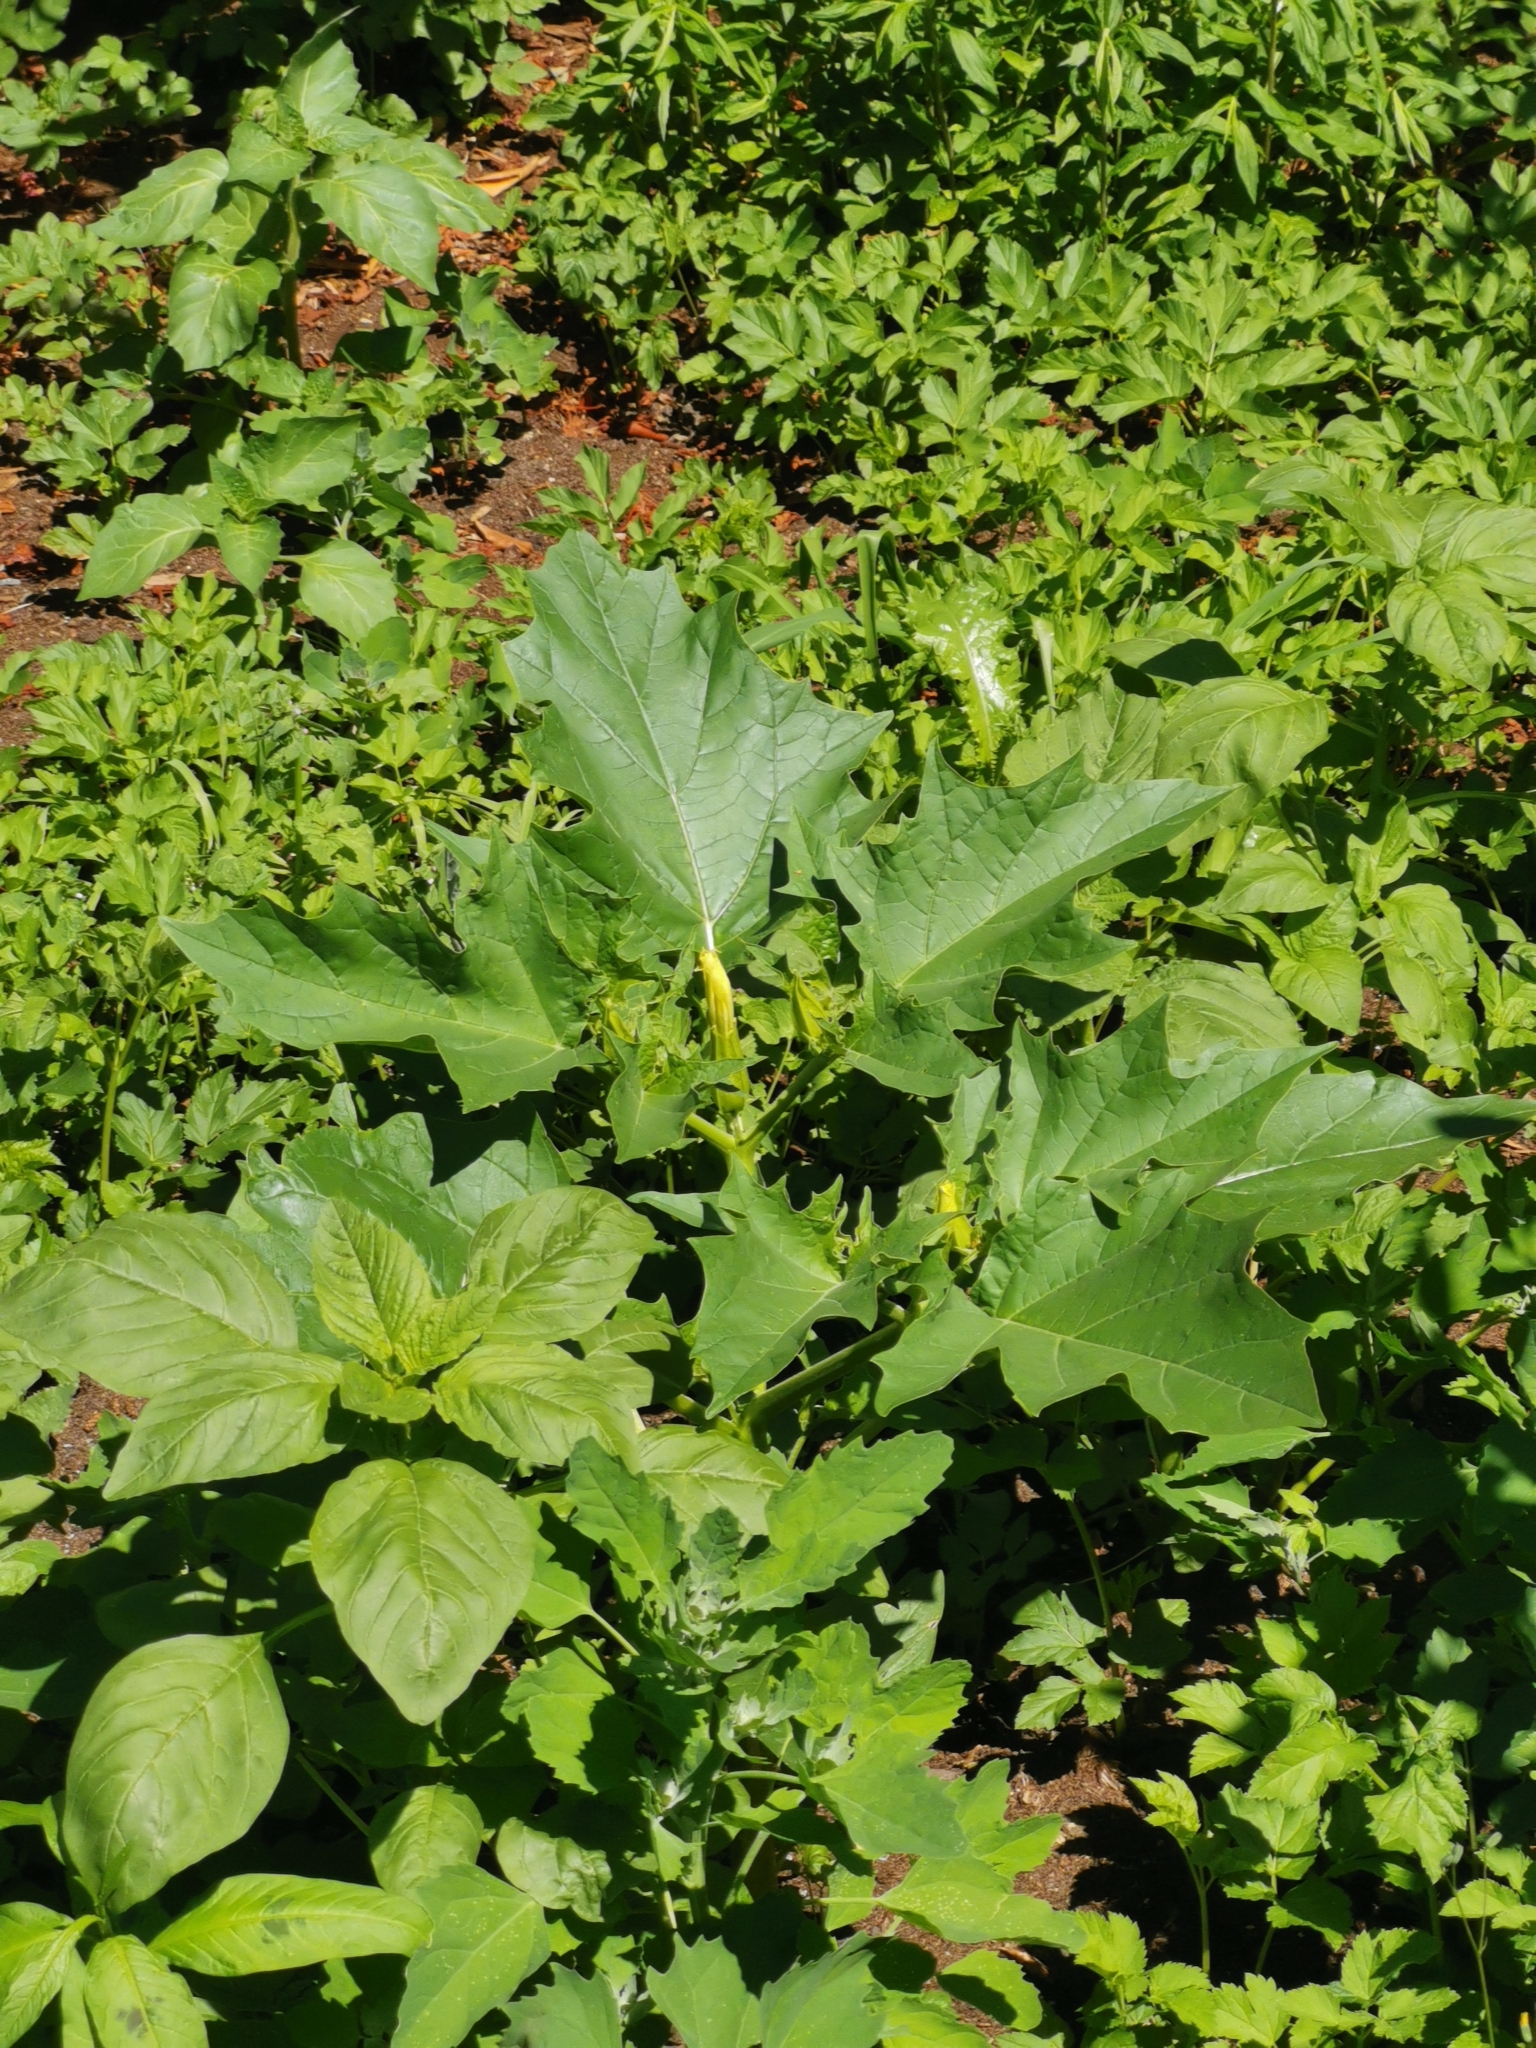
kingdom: Plantae
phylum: Tracheophyta
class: Magnoliopsida
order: Solanales
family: Solanaceae
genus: Datura
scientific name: Datura stramonium
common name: Thorn-apple
